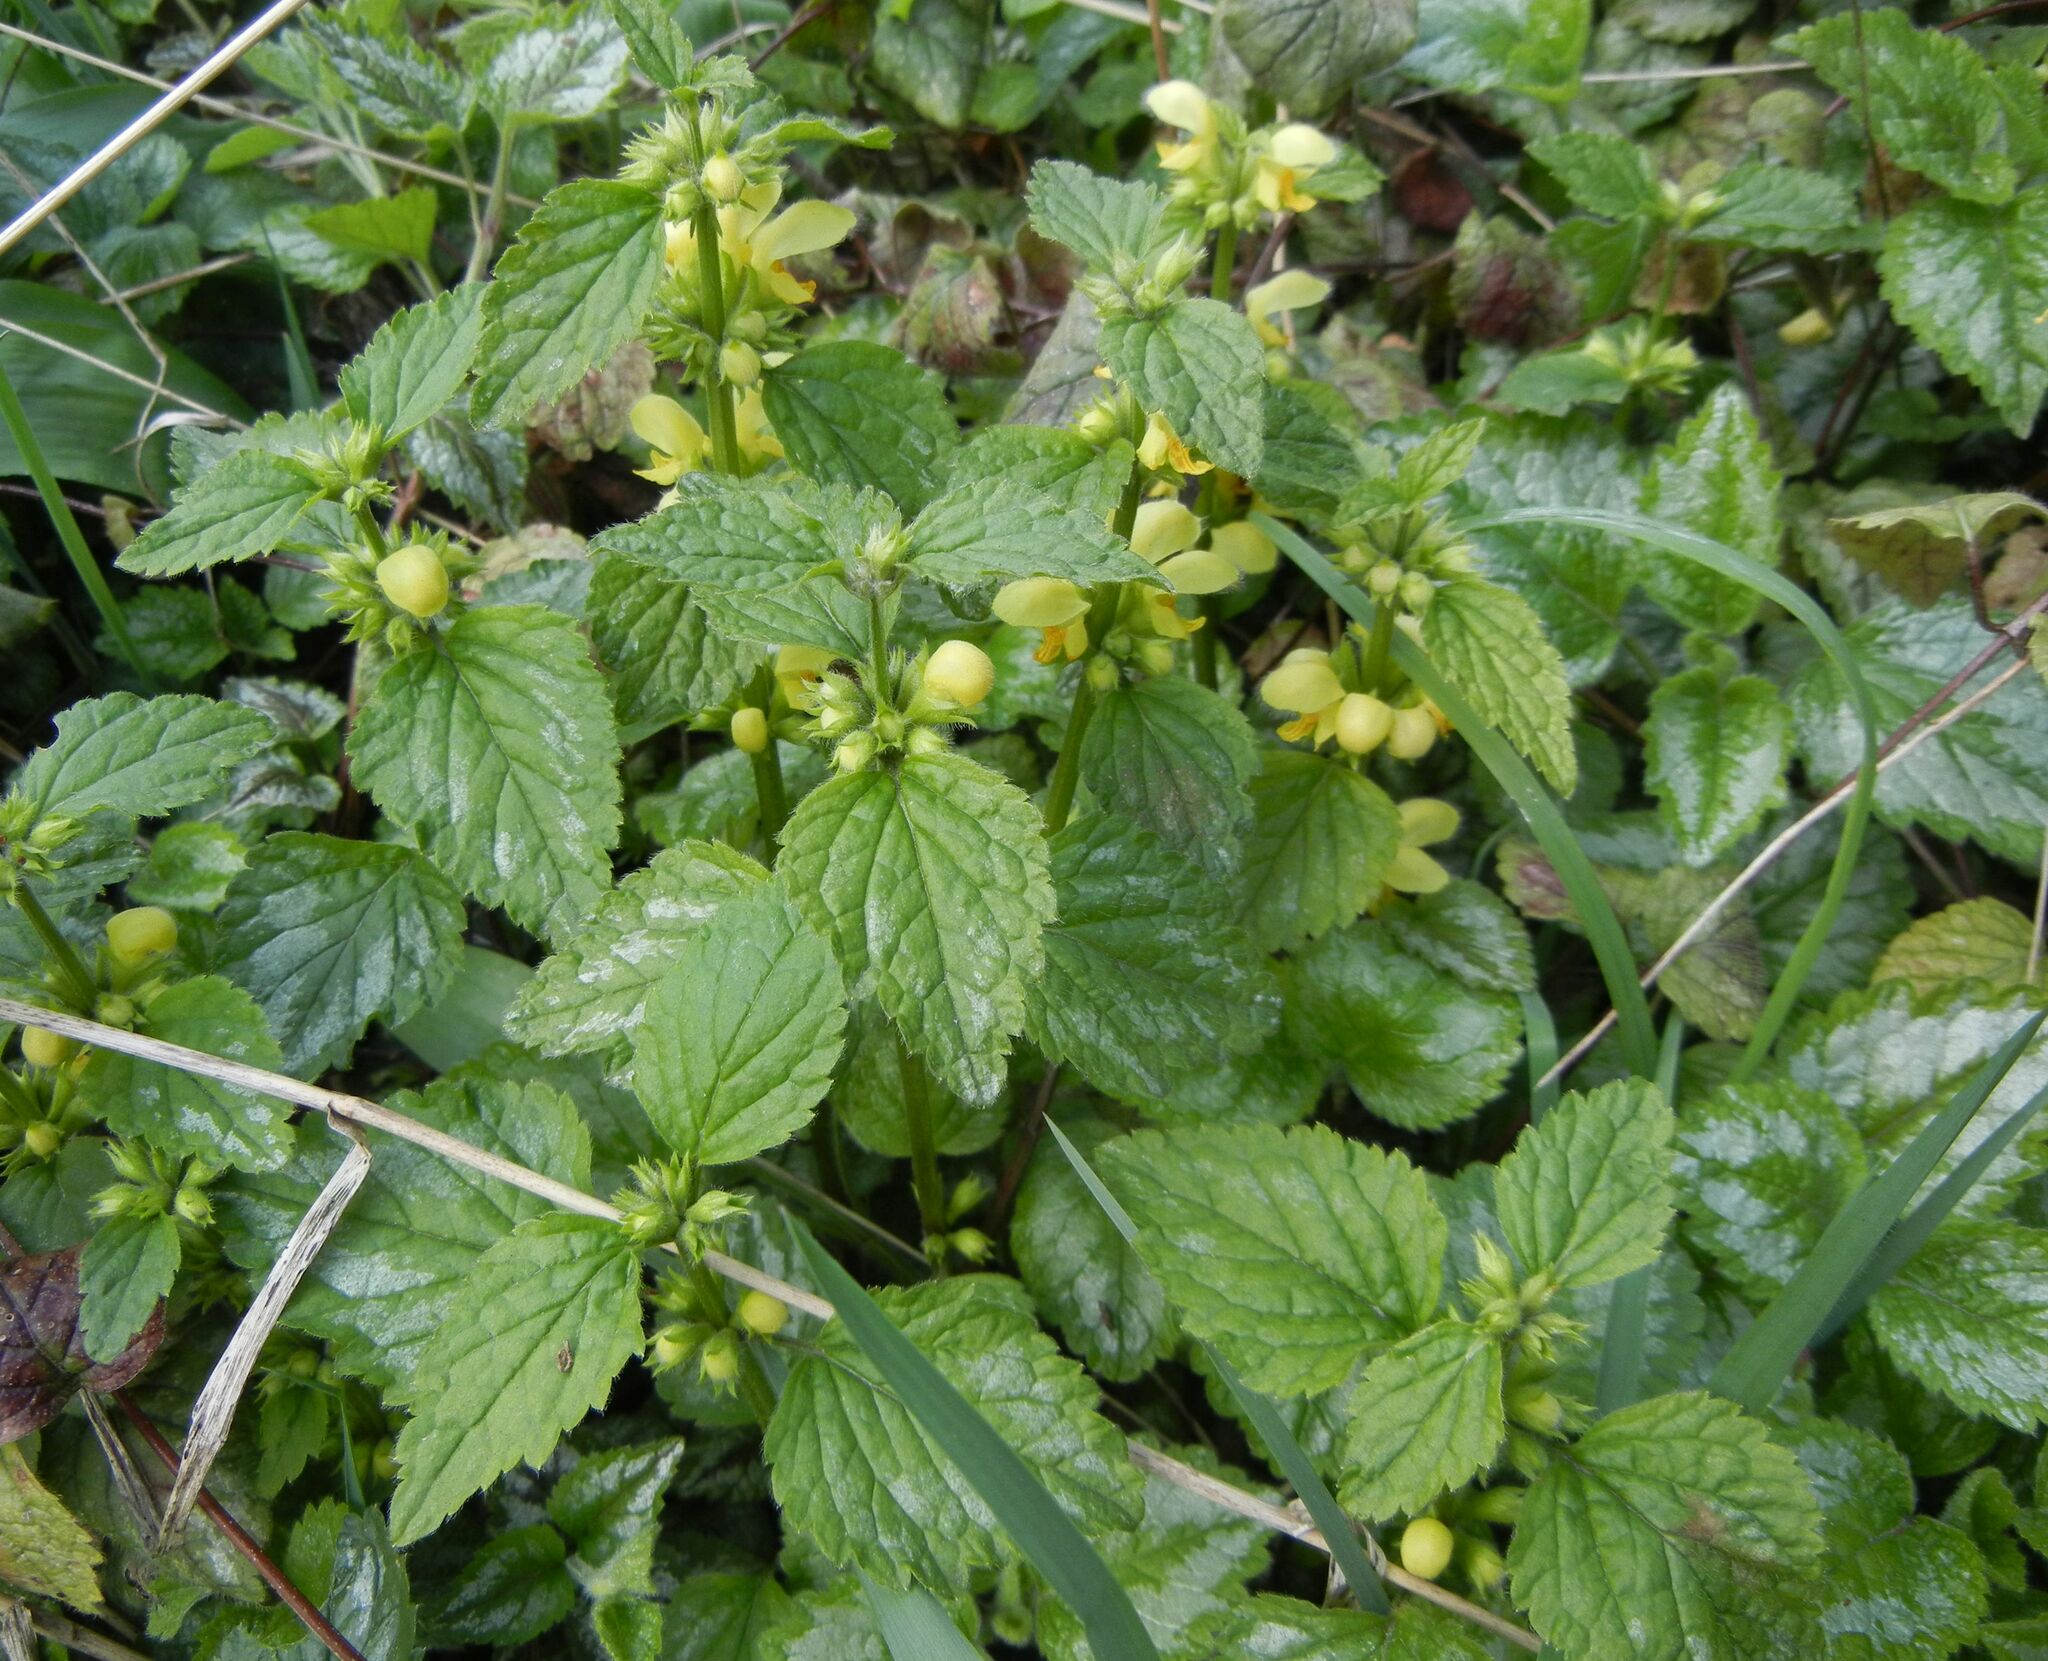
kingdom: Plantae
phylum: Tracheophyta
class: Magnoliopsida
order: Lamiales
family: Lamiaceae
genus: Lamium
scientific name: Lamium galeobdolon
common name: Yellow archangel
